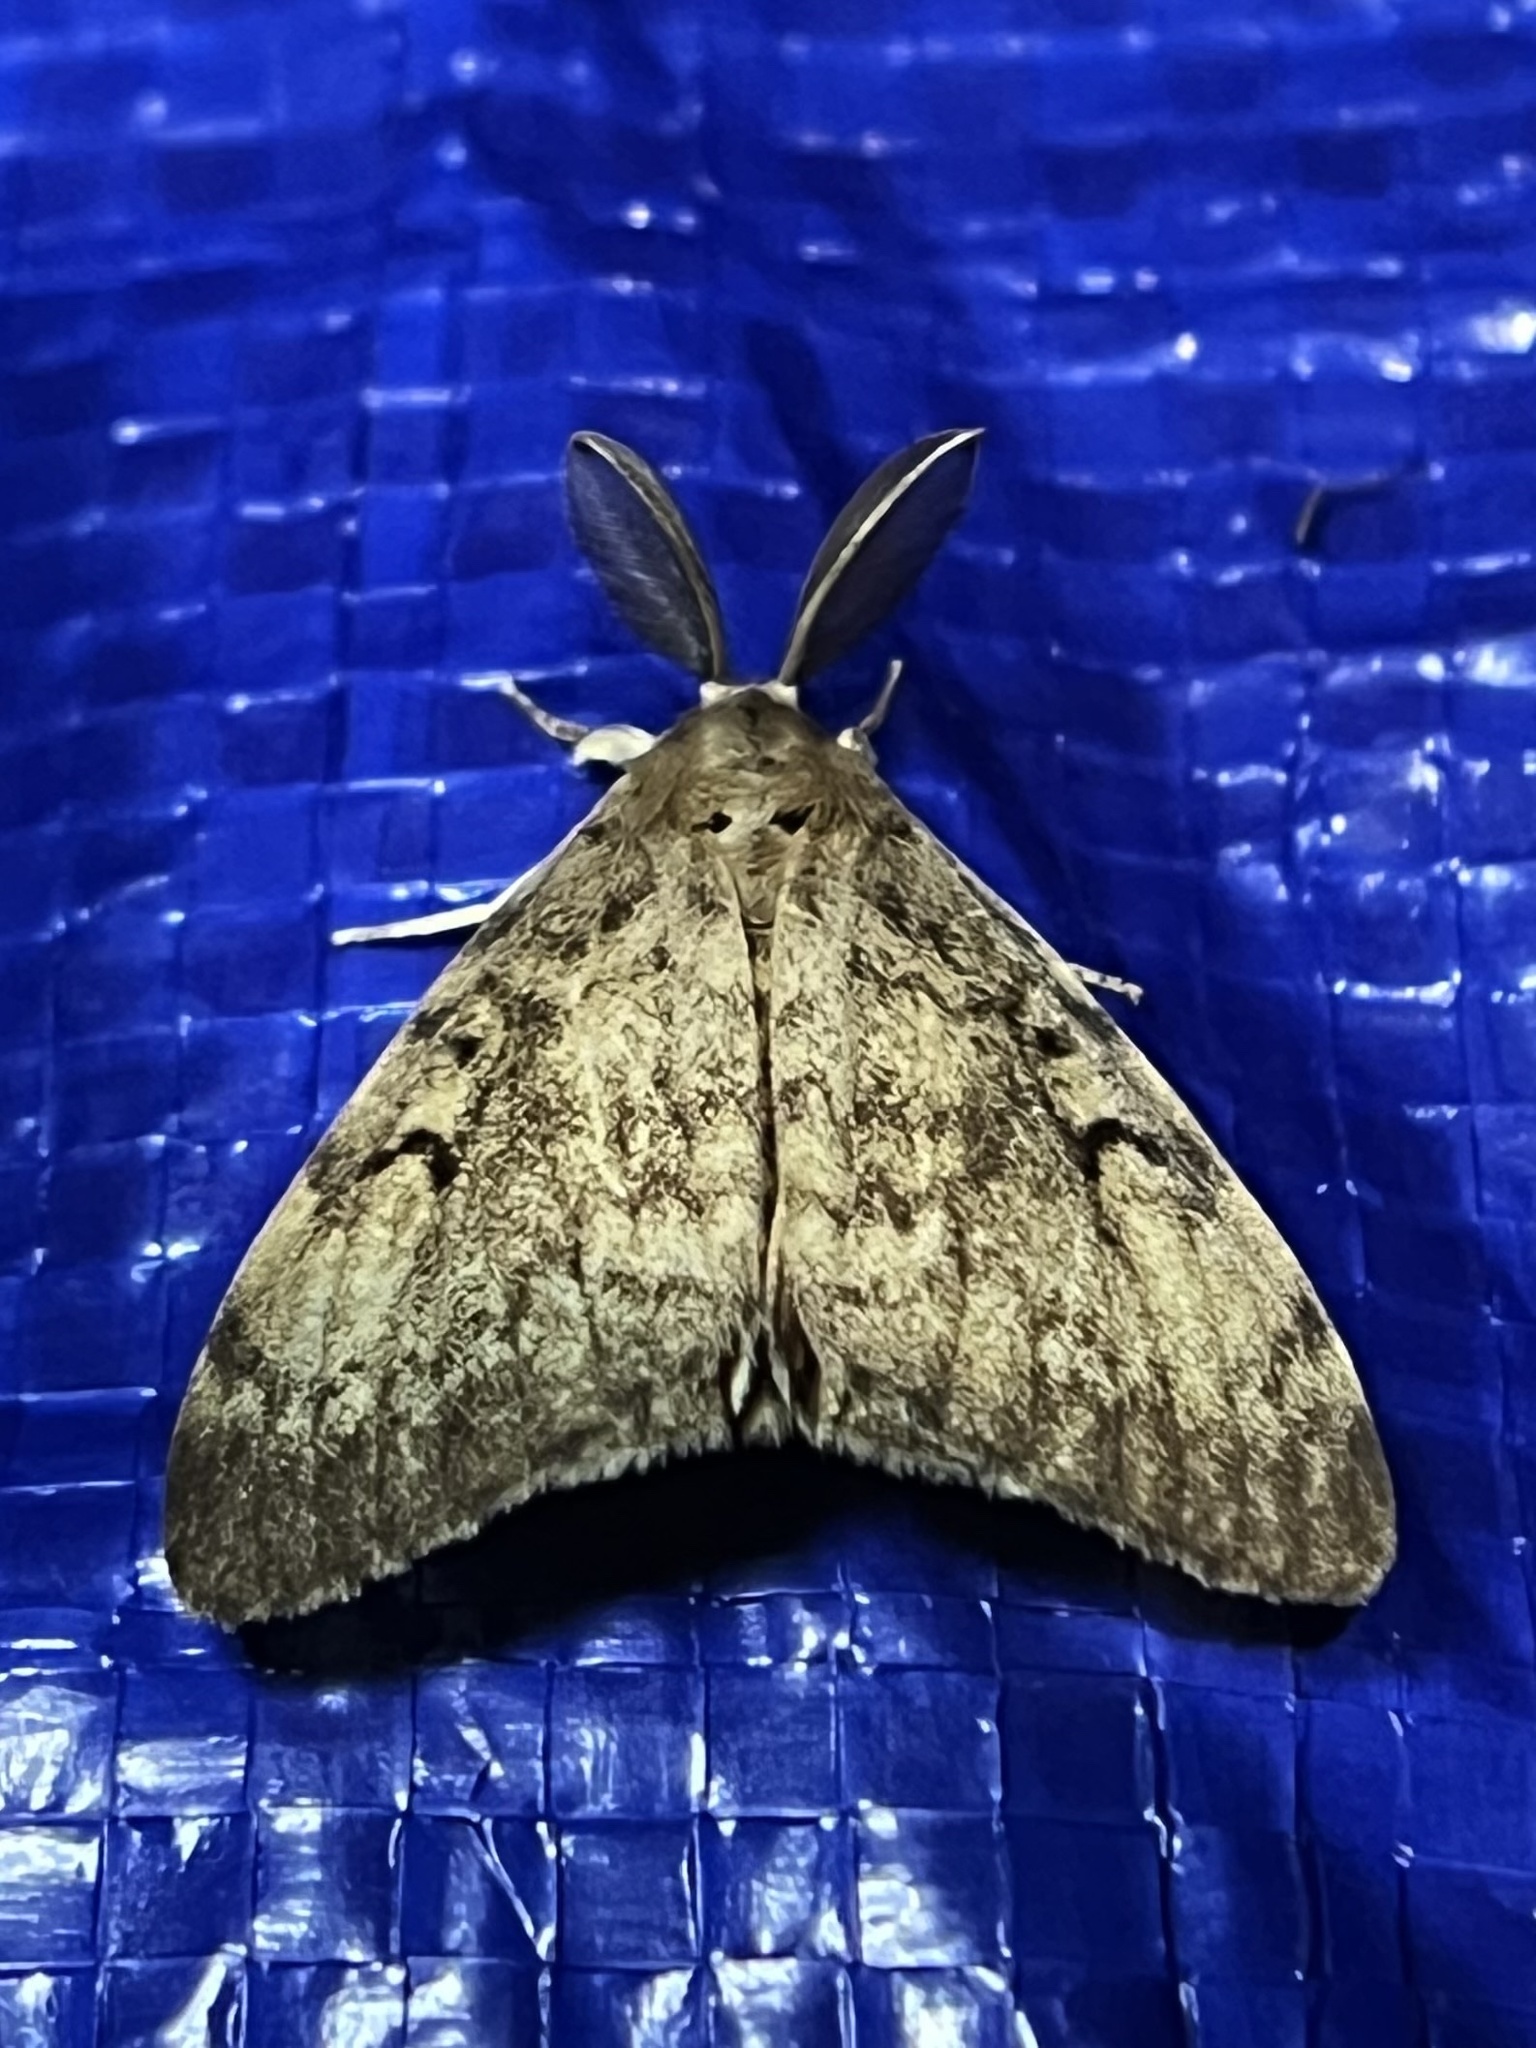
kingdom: Animalia
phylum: Arthropoda
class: Insecta
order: Lepidoptera
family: Erebidae
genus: Lymantria
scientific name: Lymantria dispar
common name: Gypsy moth
